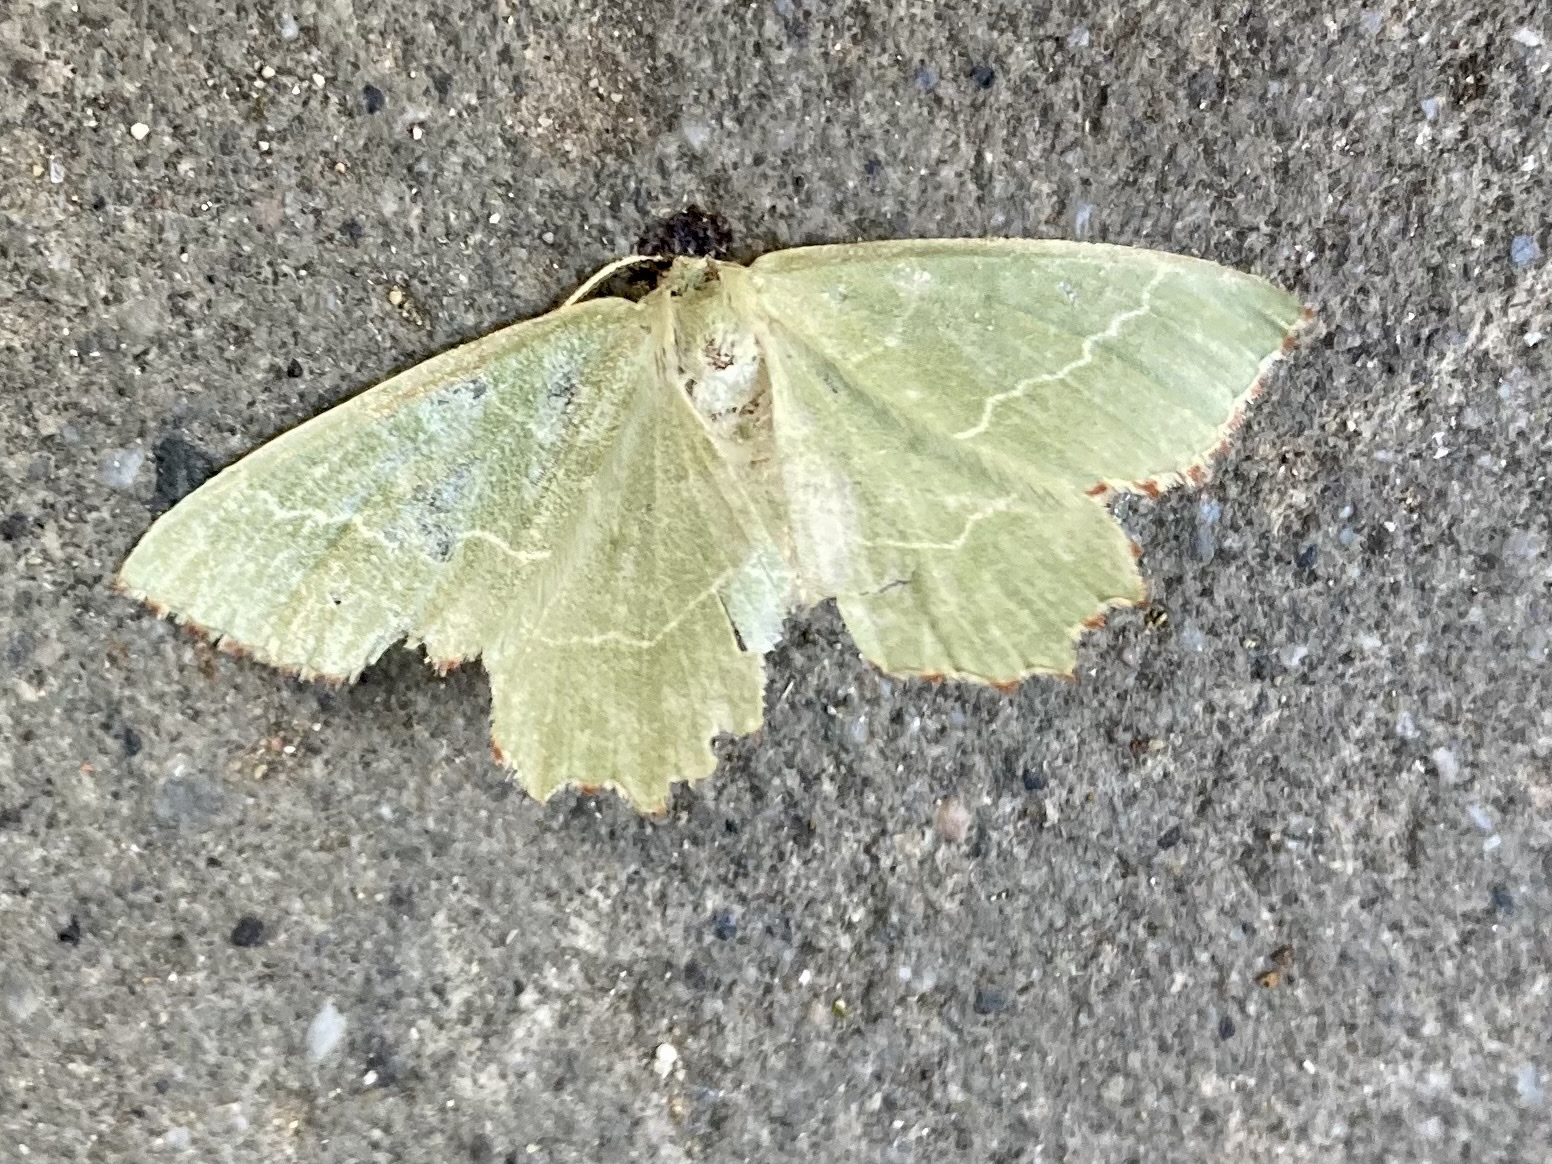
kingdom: Animalia
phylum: Arthropoda
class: Insecta
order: Lepidoptera
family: Geometridae
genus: Thalera
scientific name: Thalera fimbrialis
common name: Sussex emerald
